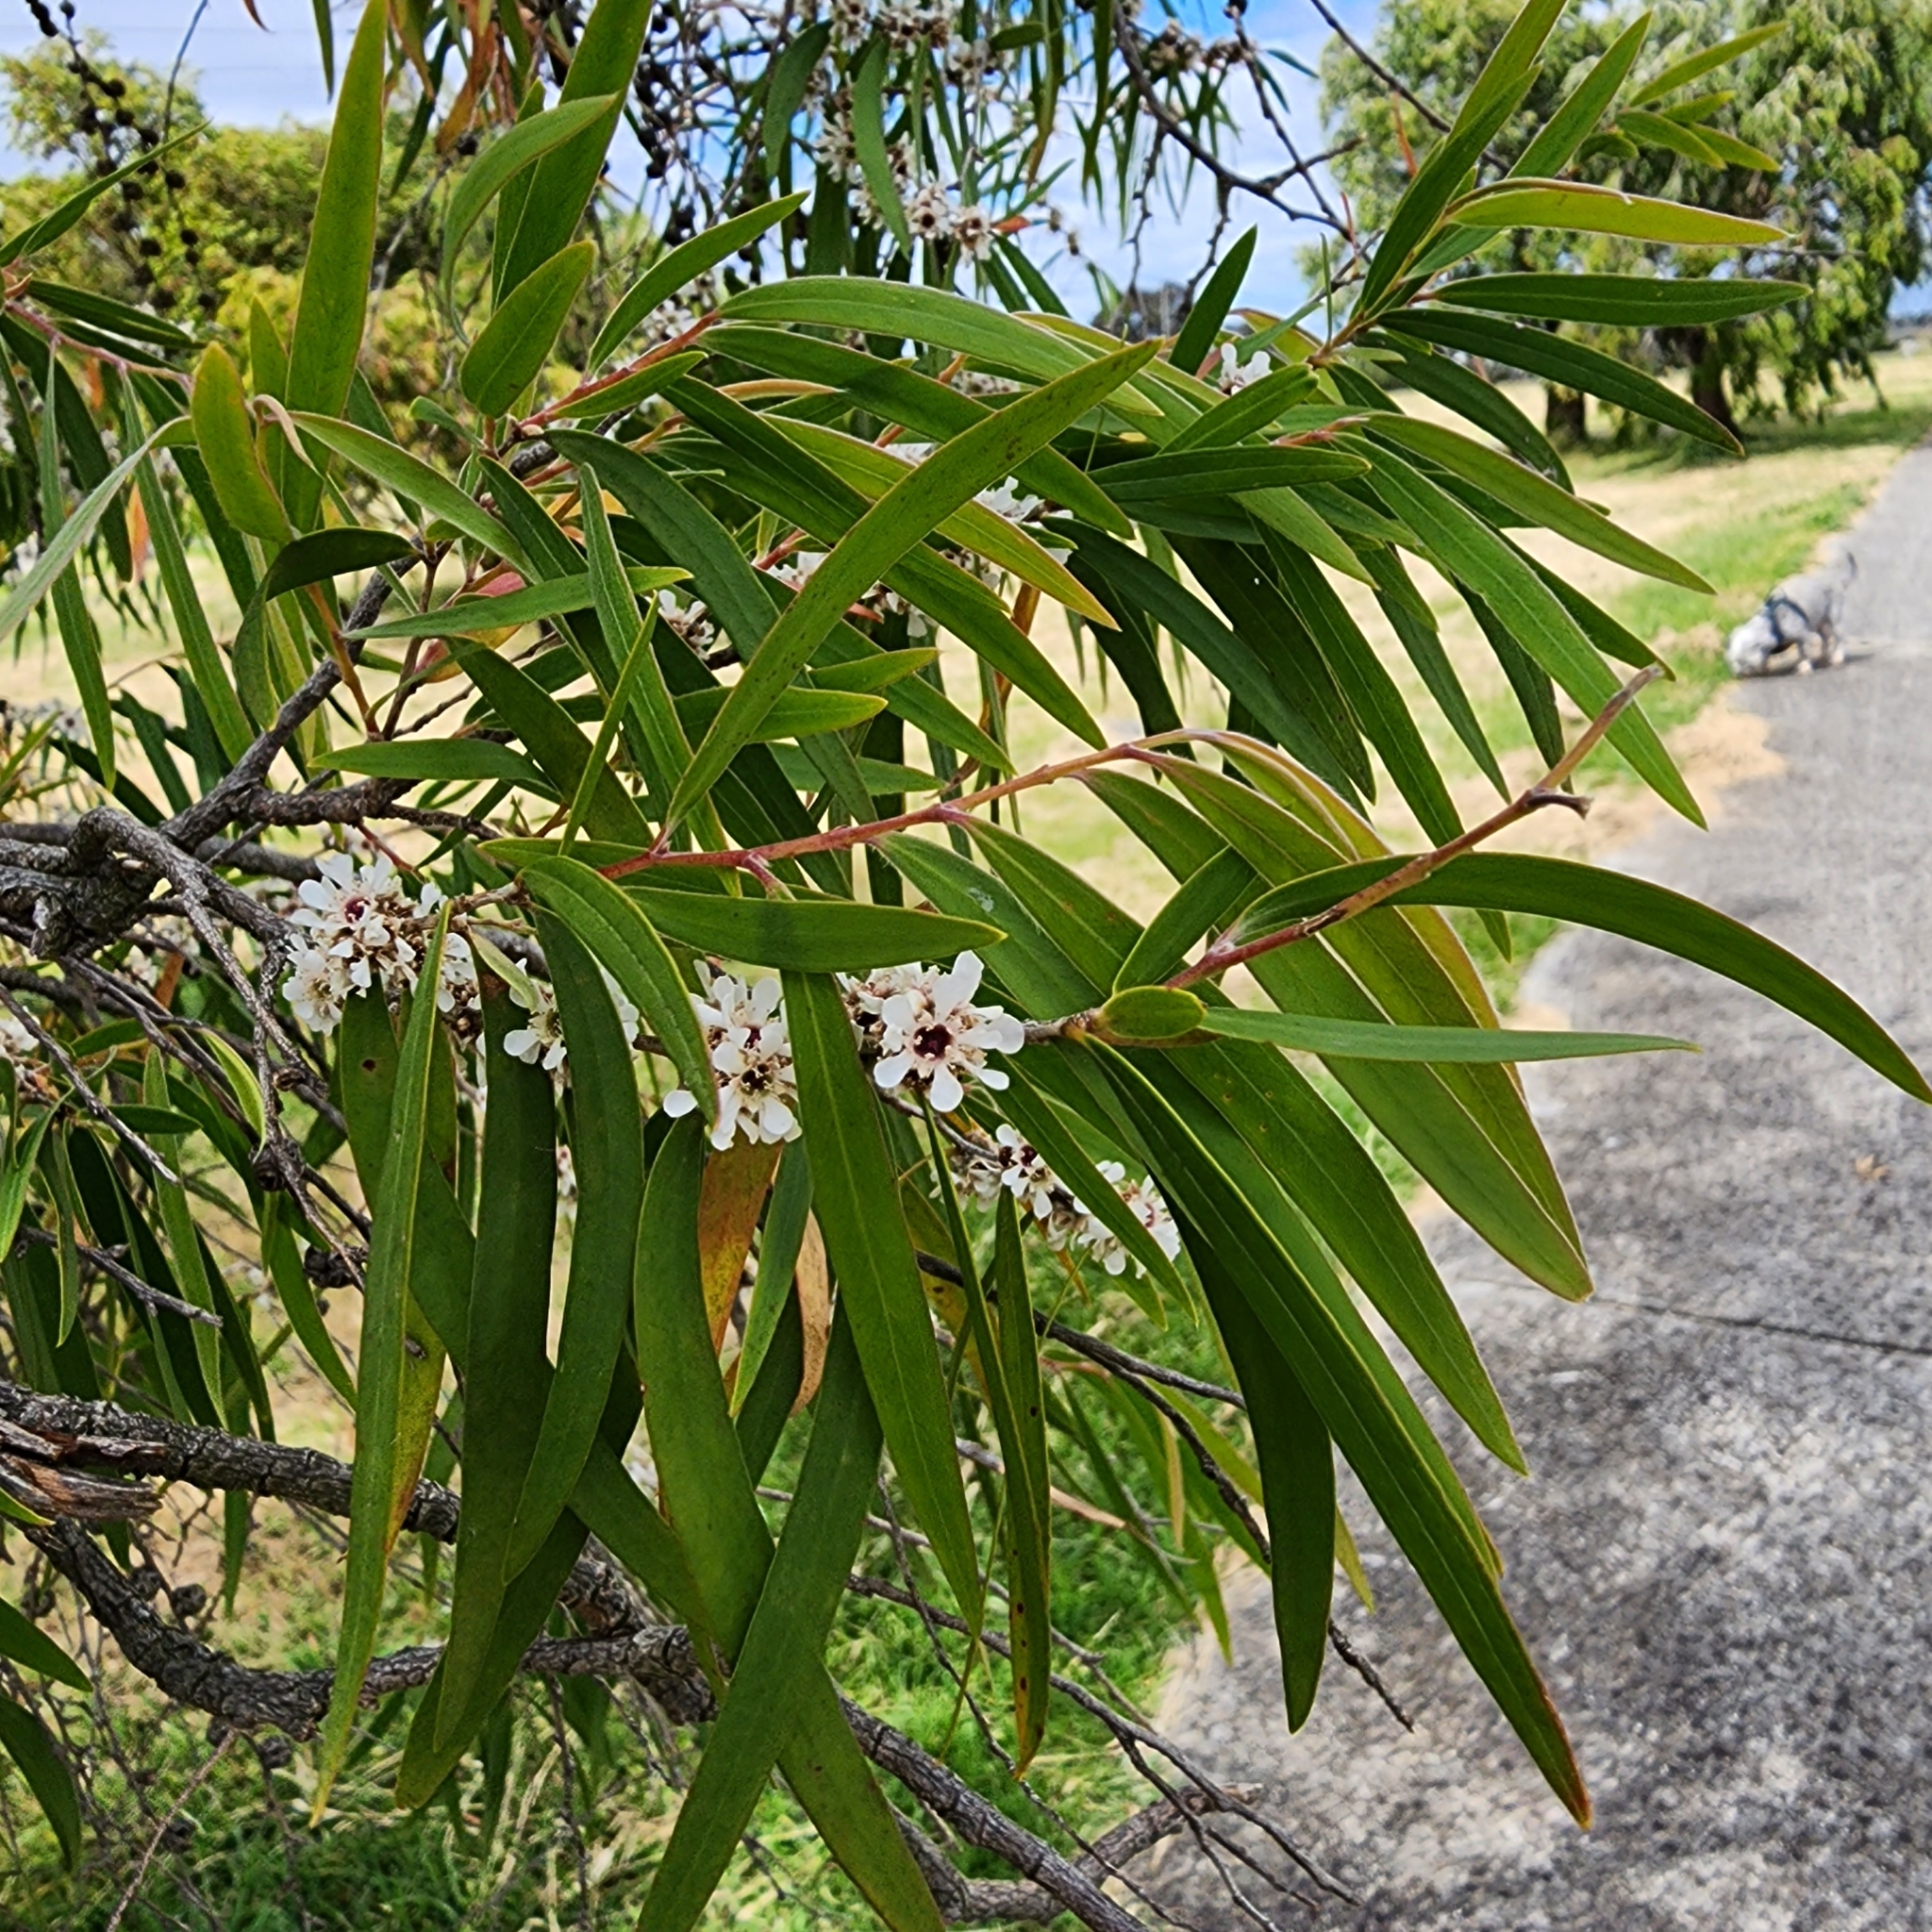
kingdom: Plantae
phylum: Tracheophyta
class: Magnoliopsida
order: Myrtales
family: Myrtaceae
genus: Agonis
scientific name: Agonis flexuosa
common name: Willow myrtle
